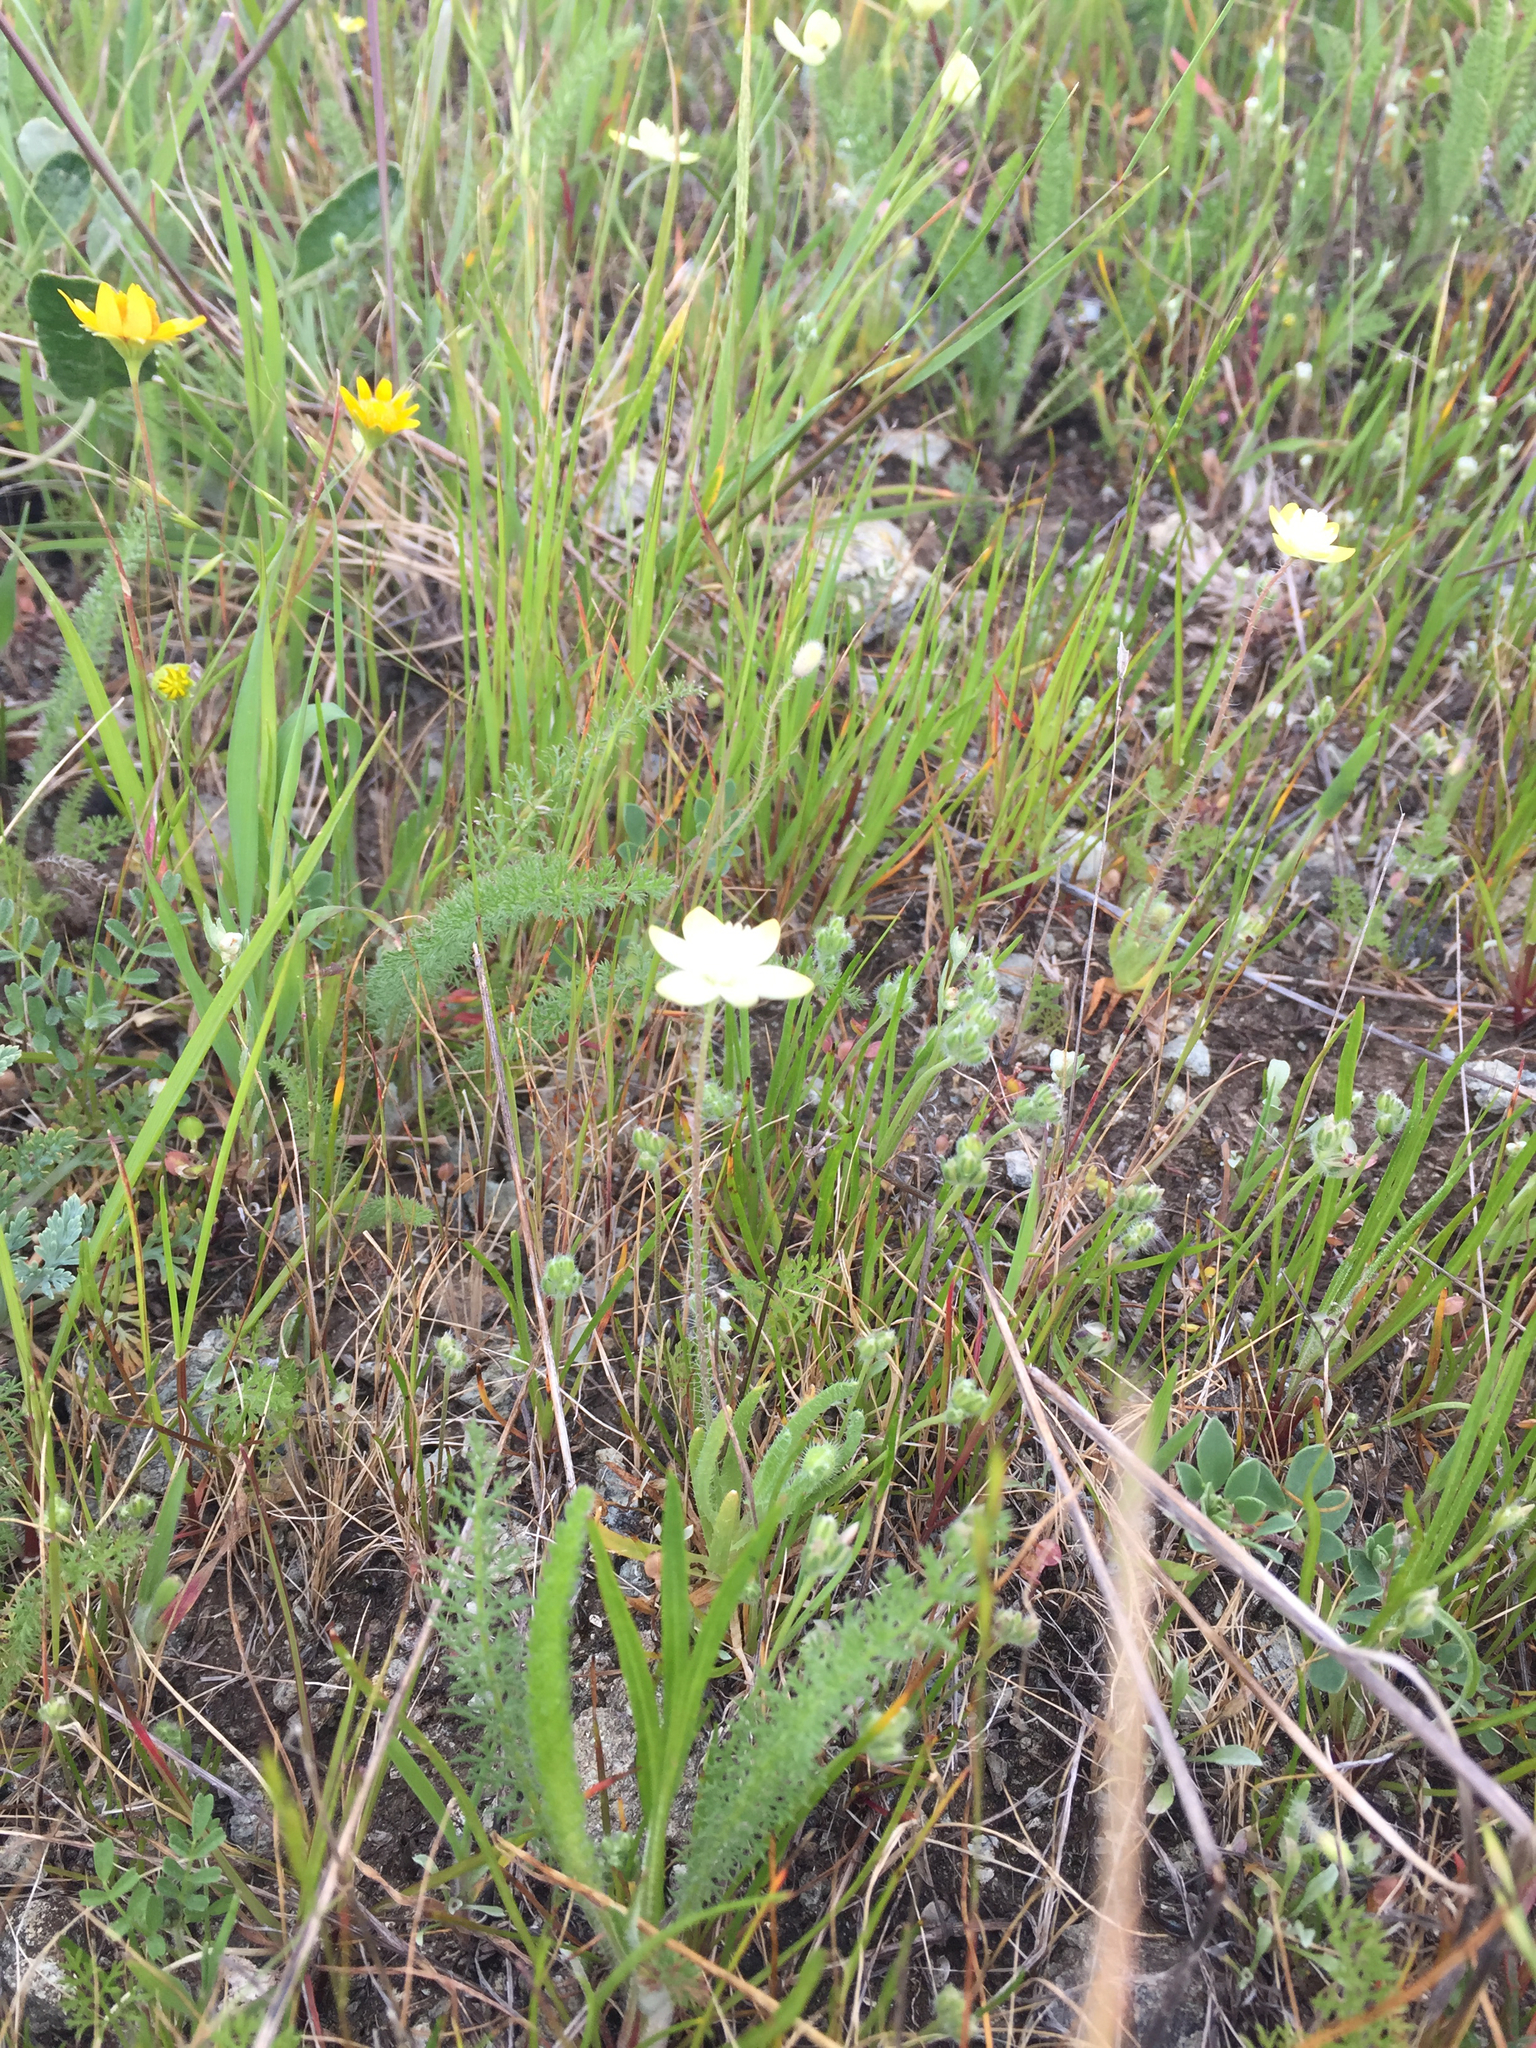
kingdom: Plantae
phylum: Tracheophyta
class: Magnoliopsida
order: Ranunculales
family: Papaveraceae
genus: Platystemon
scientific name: Platystemon californicus
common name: Cream-cups
